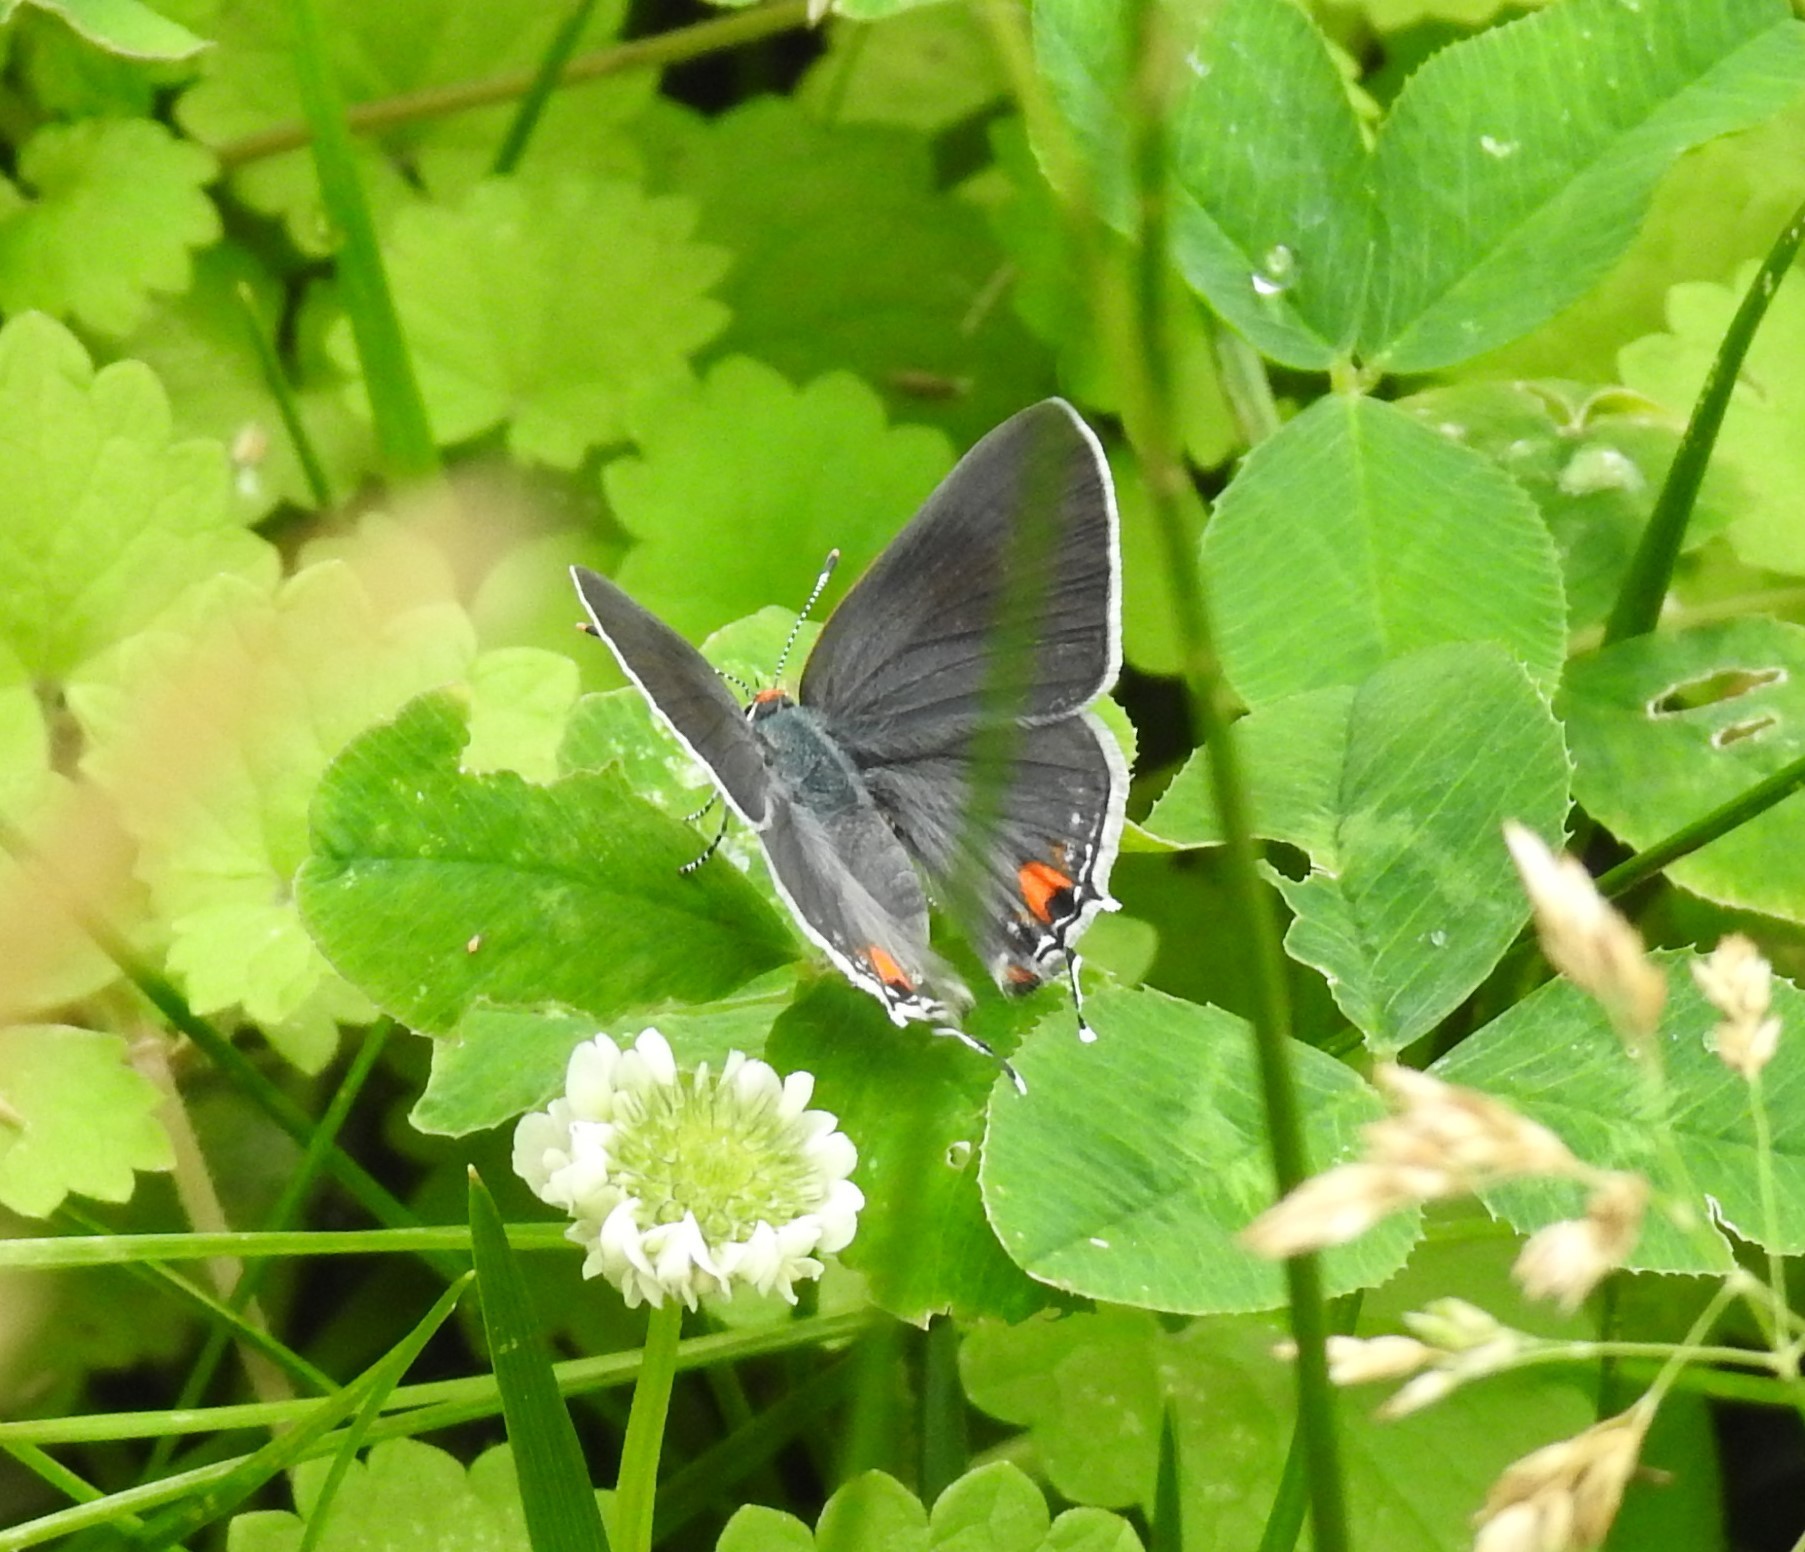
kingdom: Animalia
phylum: Arthropoda
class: Insecta
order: Lepidoptera
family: Lycaenidae
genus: Strymon
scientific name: Strymon melinus
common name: Gray hairstreak
